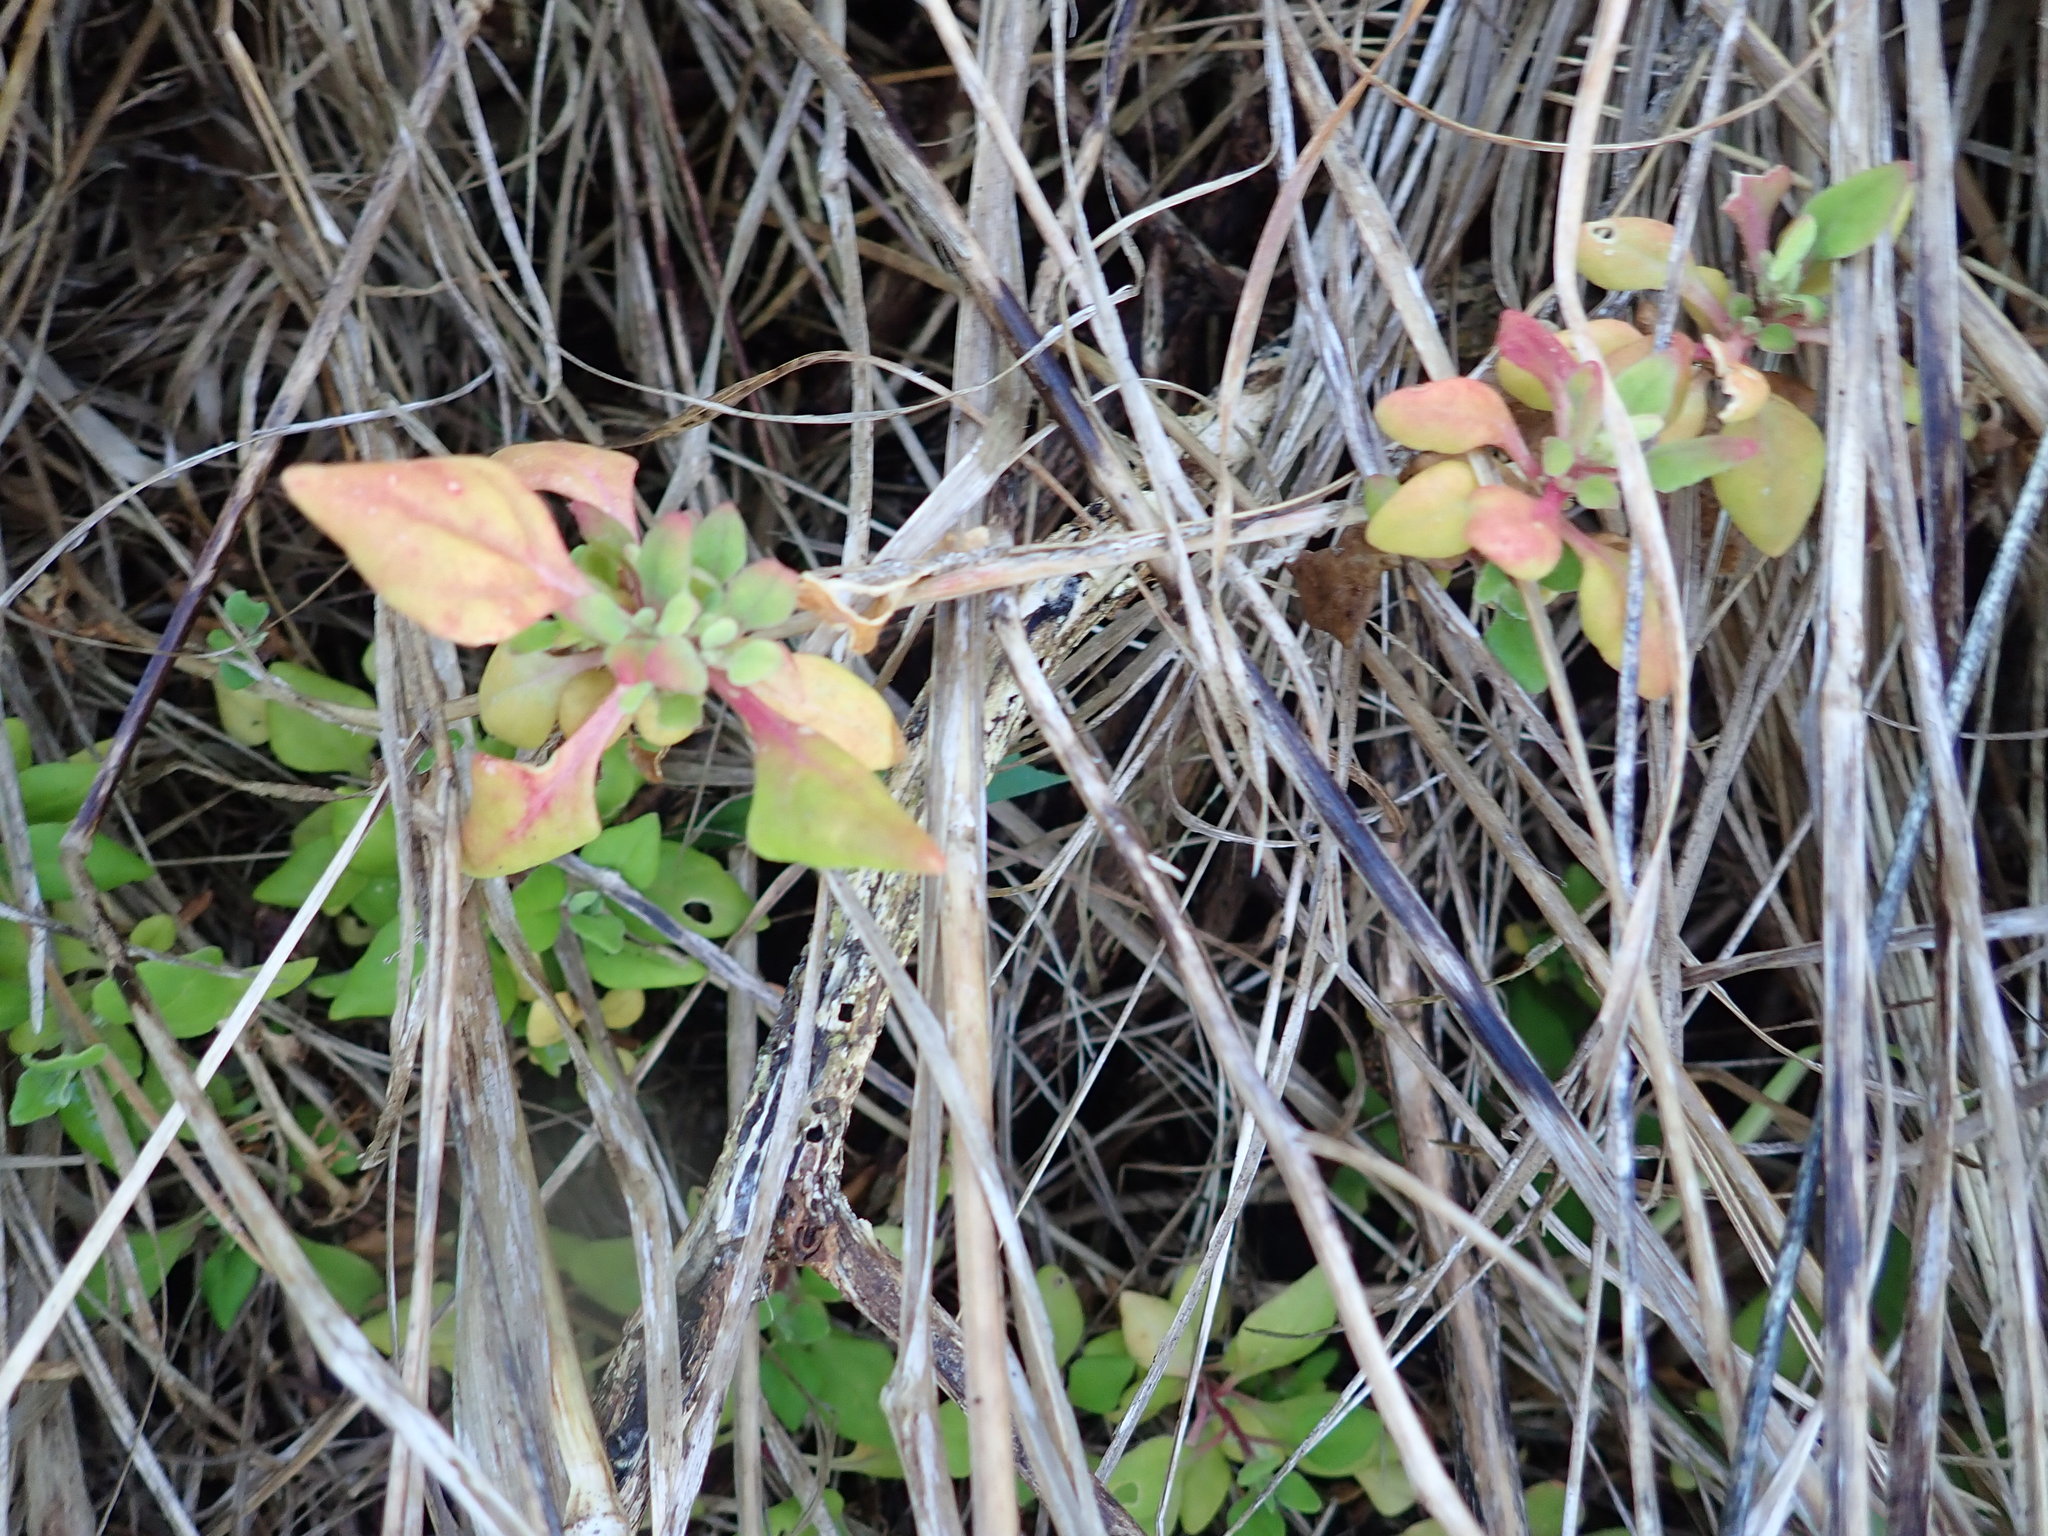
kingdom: Plantae
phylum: Tracheophyta
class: Magnoliopsida
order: Caryophyllales
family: Aizoaceae
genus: Tetragonia
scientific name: Tetragonia implexicoma
